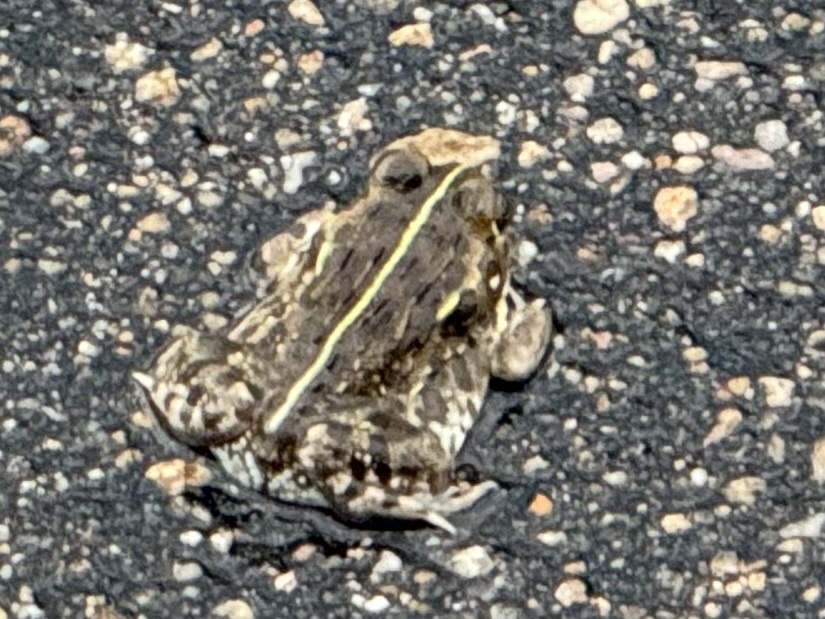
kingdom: Animalia
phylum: Chordata
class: Amphibia
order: Anura
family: Pyxicephalidae
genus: Pyxicephalus
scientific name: Pyxicephalus edulis
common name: Peter's bullfrog
